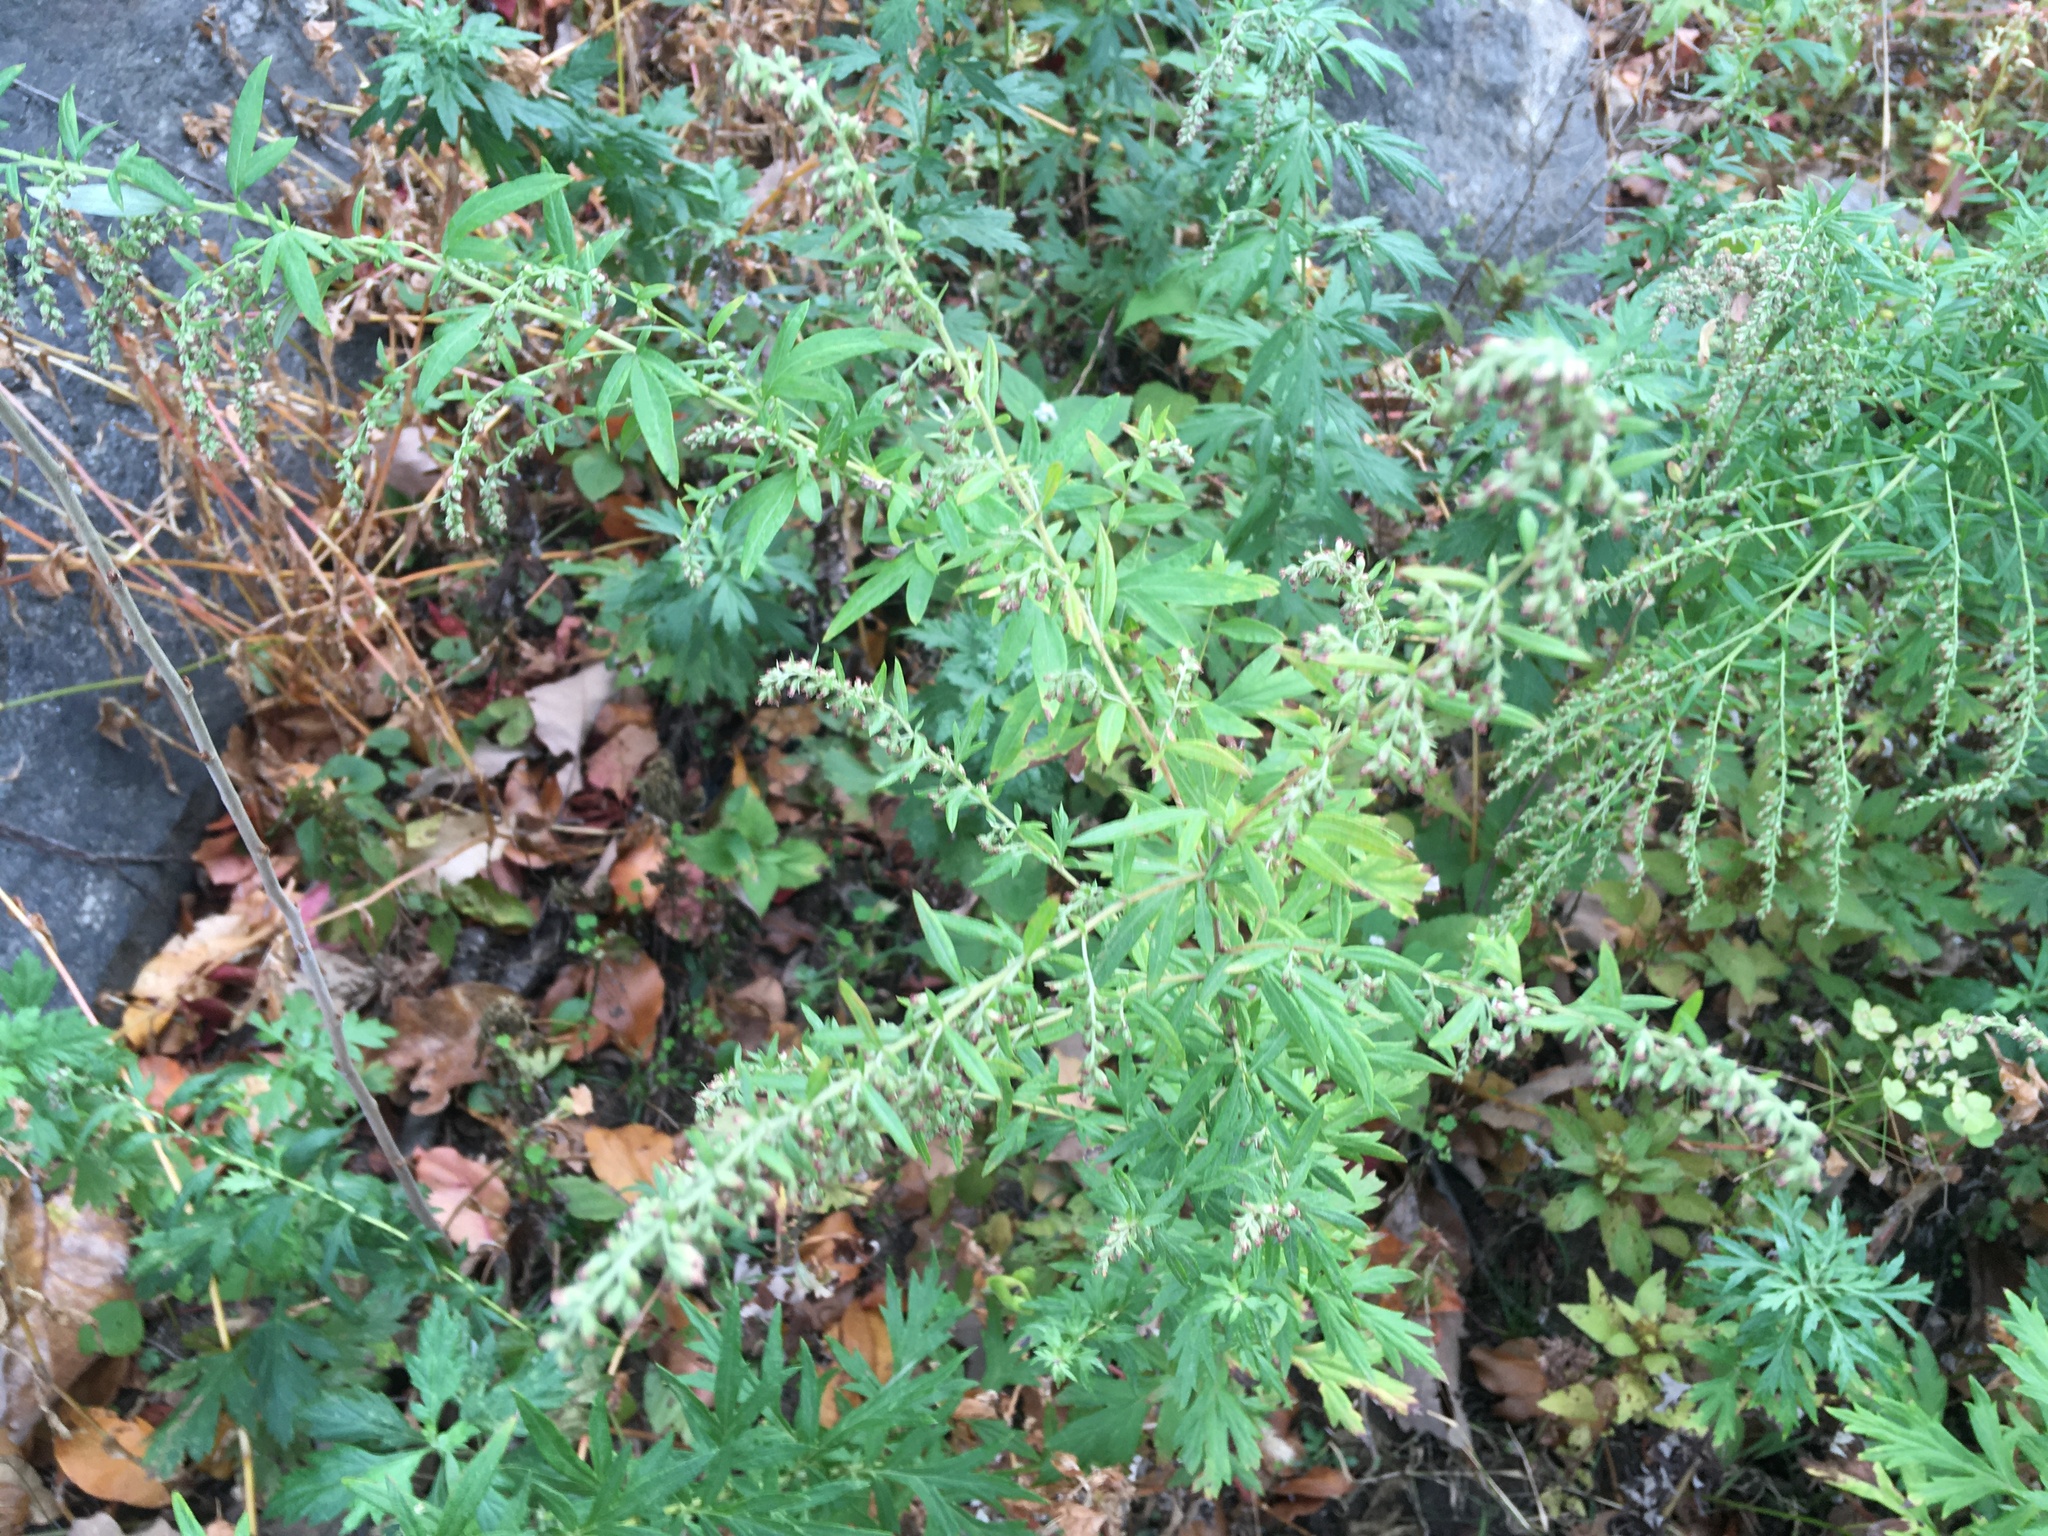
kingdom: Plantae
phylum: Tracheophyta
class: Magnoliopsida
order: Asterales
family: Asteraceae
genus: Artemisia
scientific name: Artemisia vulgaris
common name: Mugwort
